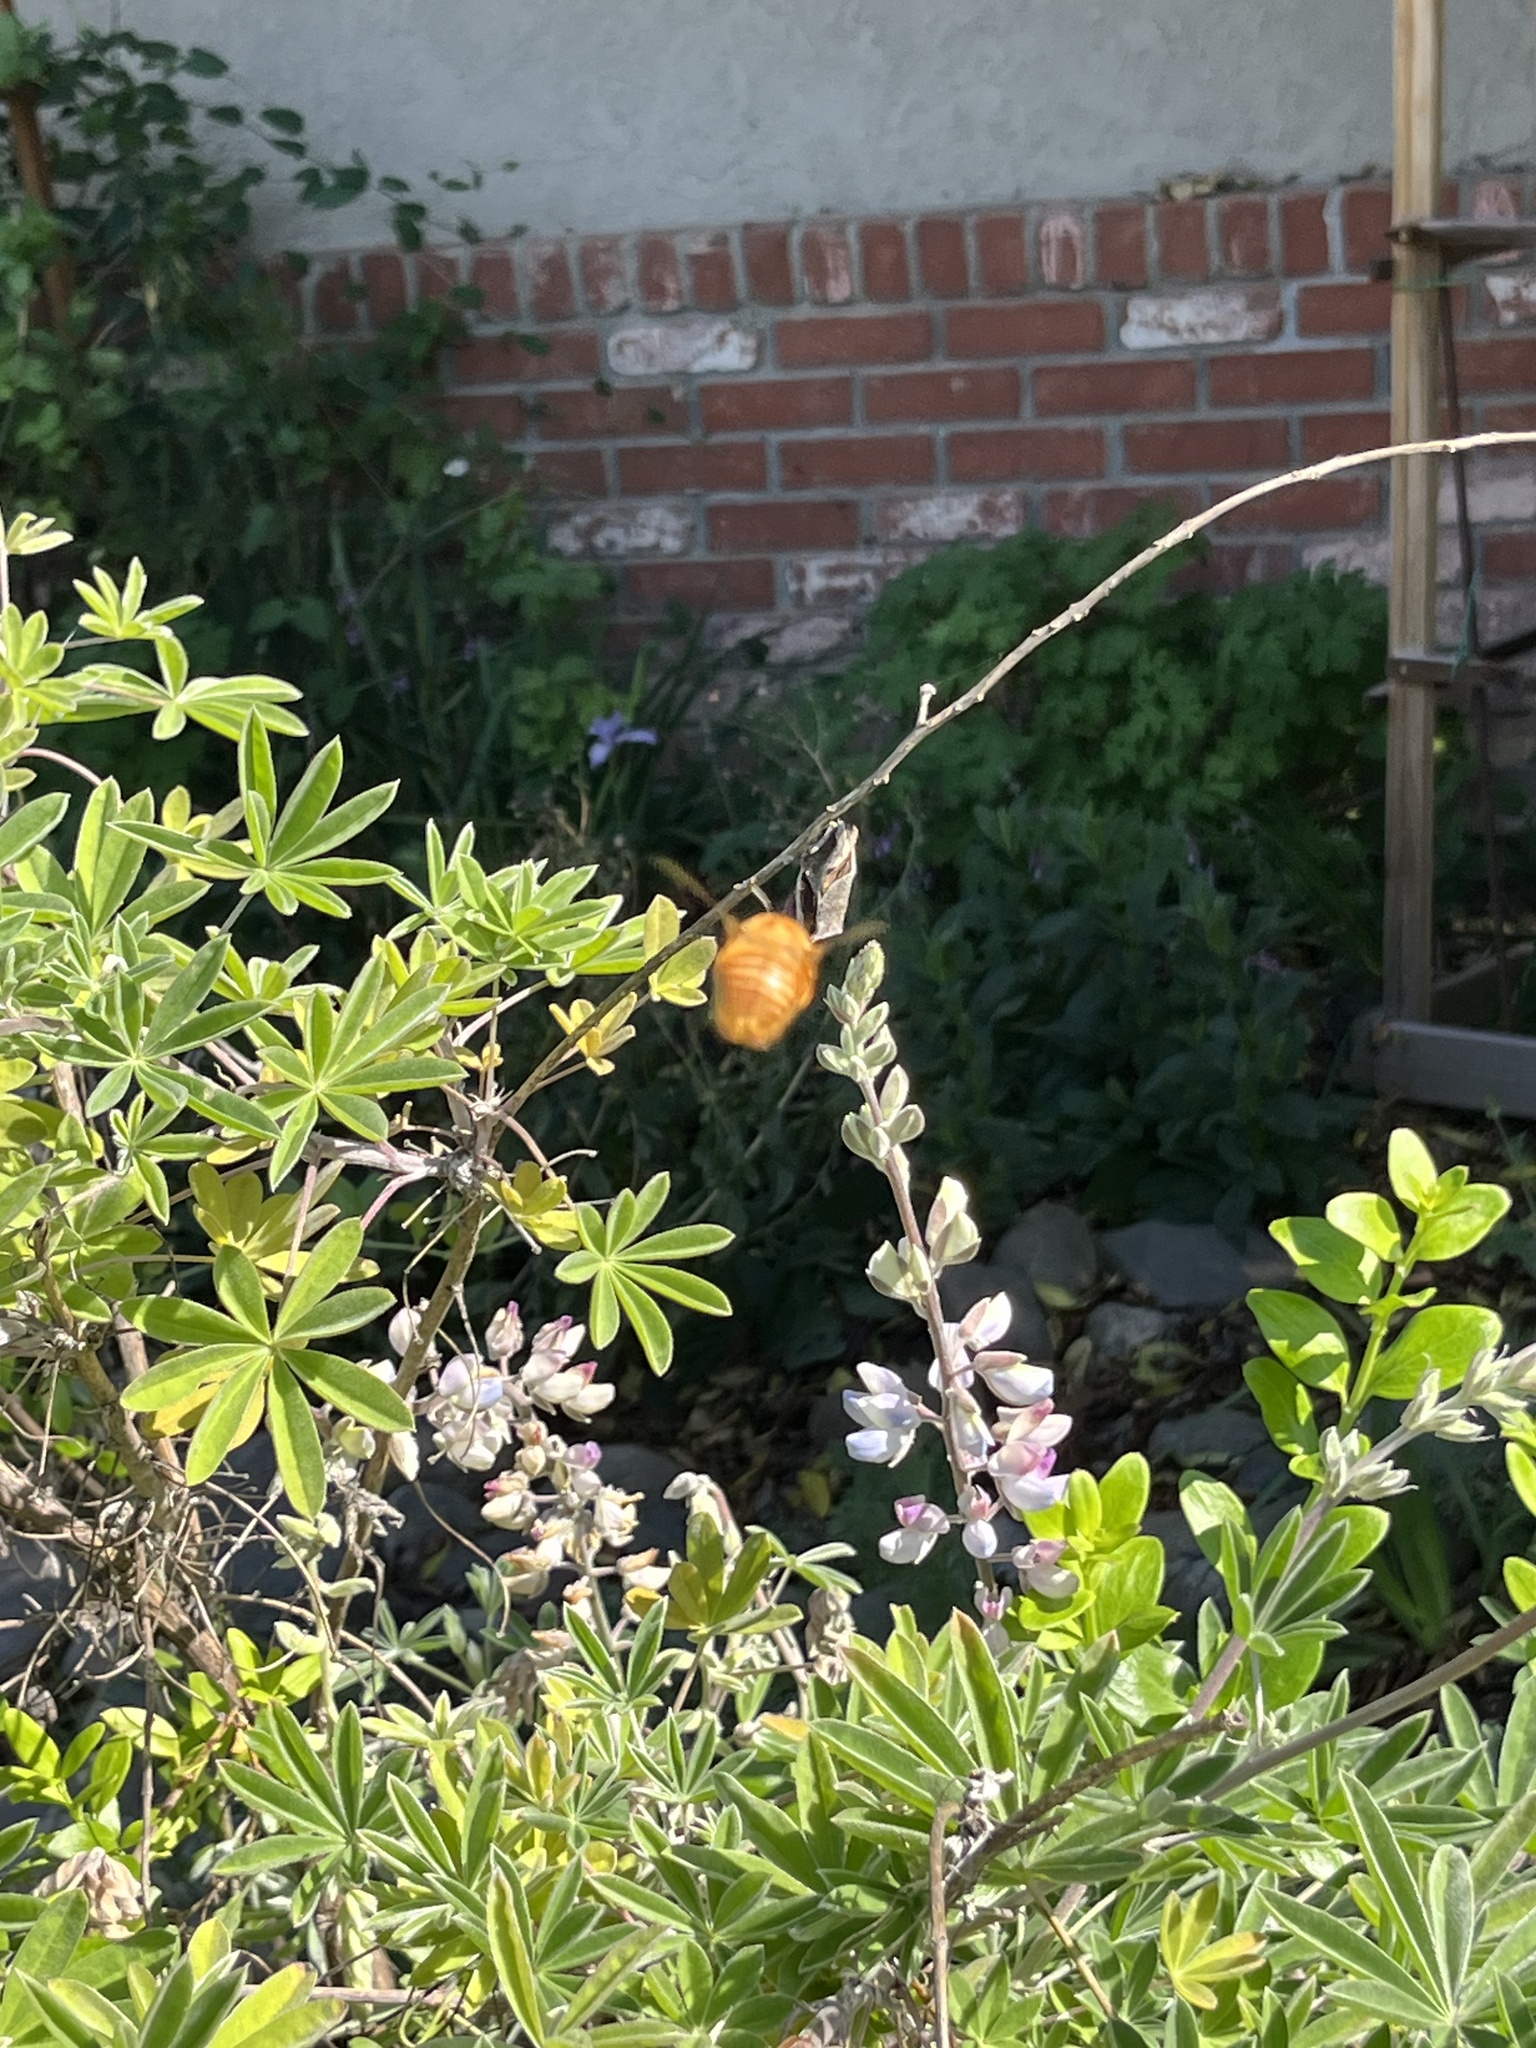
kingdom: Animalia
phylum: Arthropoda
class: Insecta
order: Hymenoptera
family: Apidae
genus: Xylocopa
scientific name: Xylocopa sonorina
